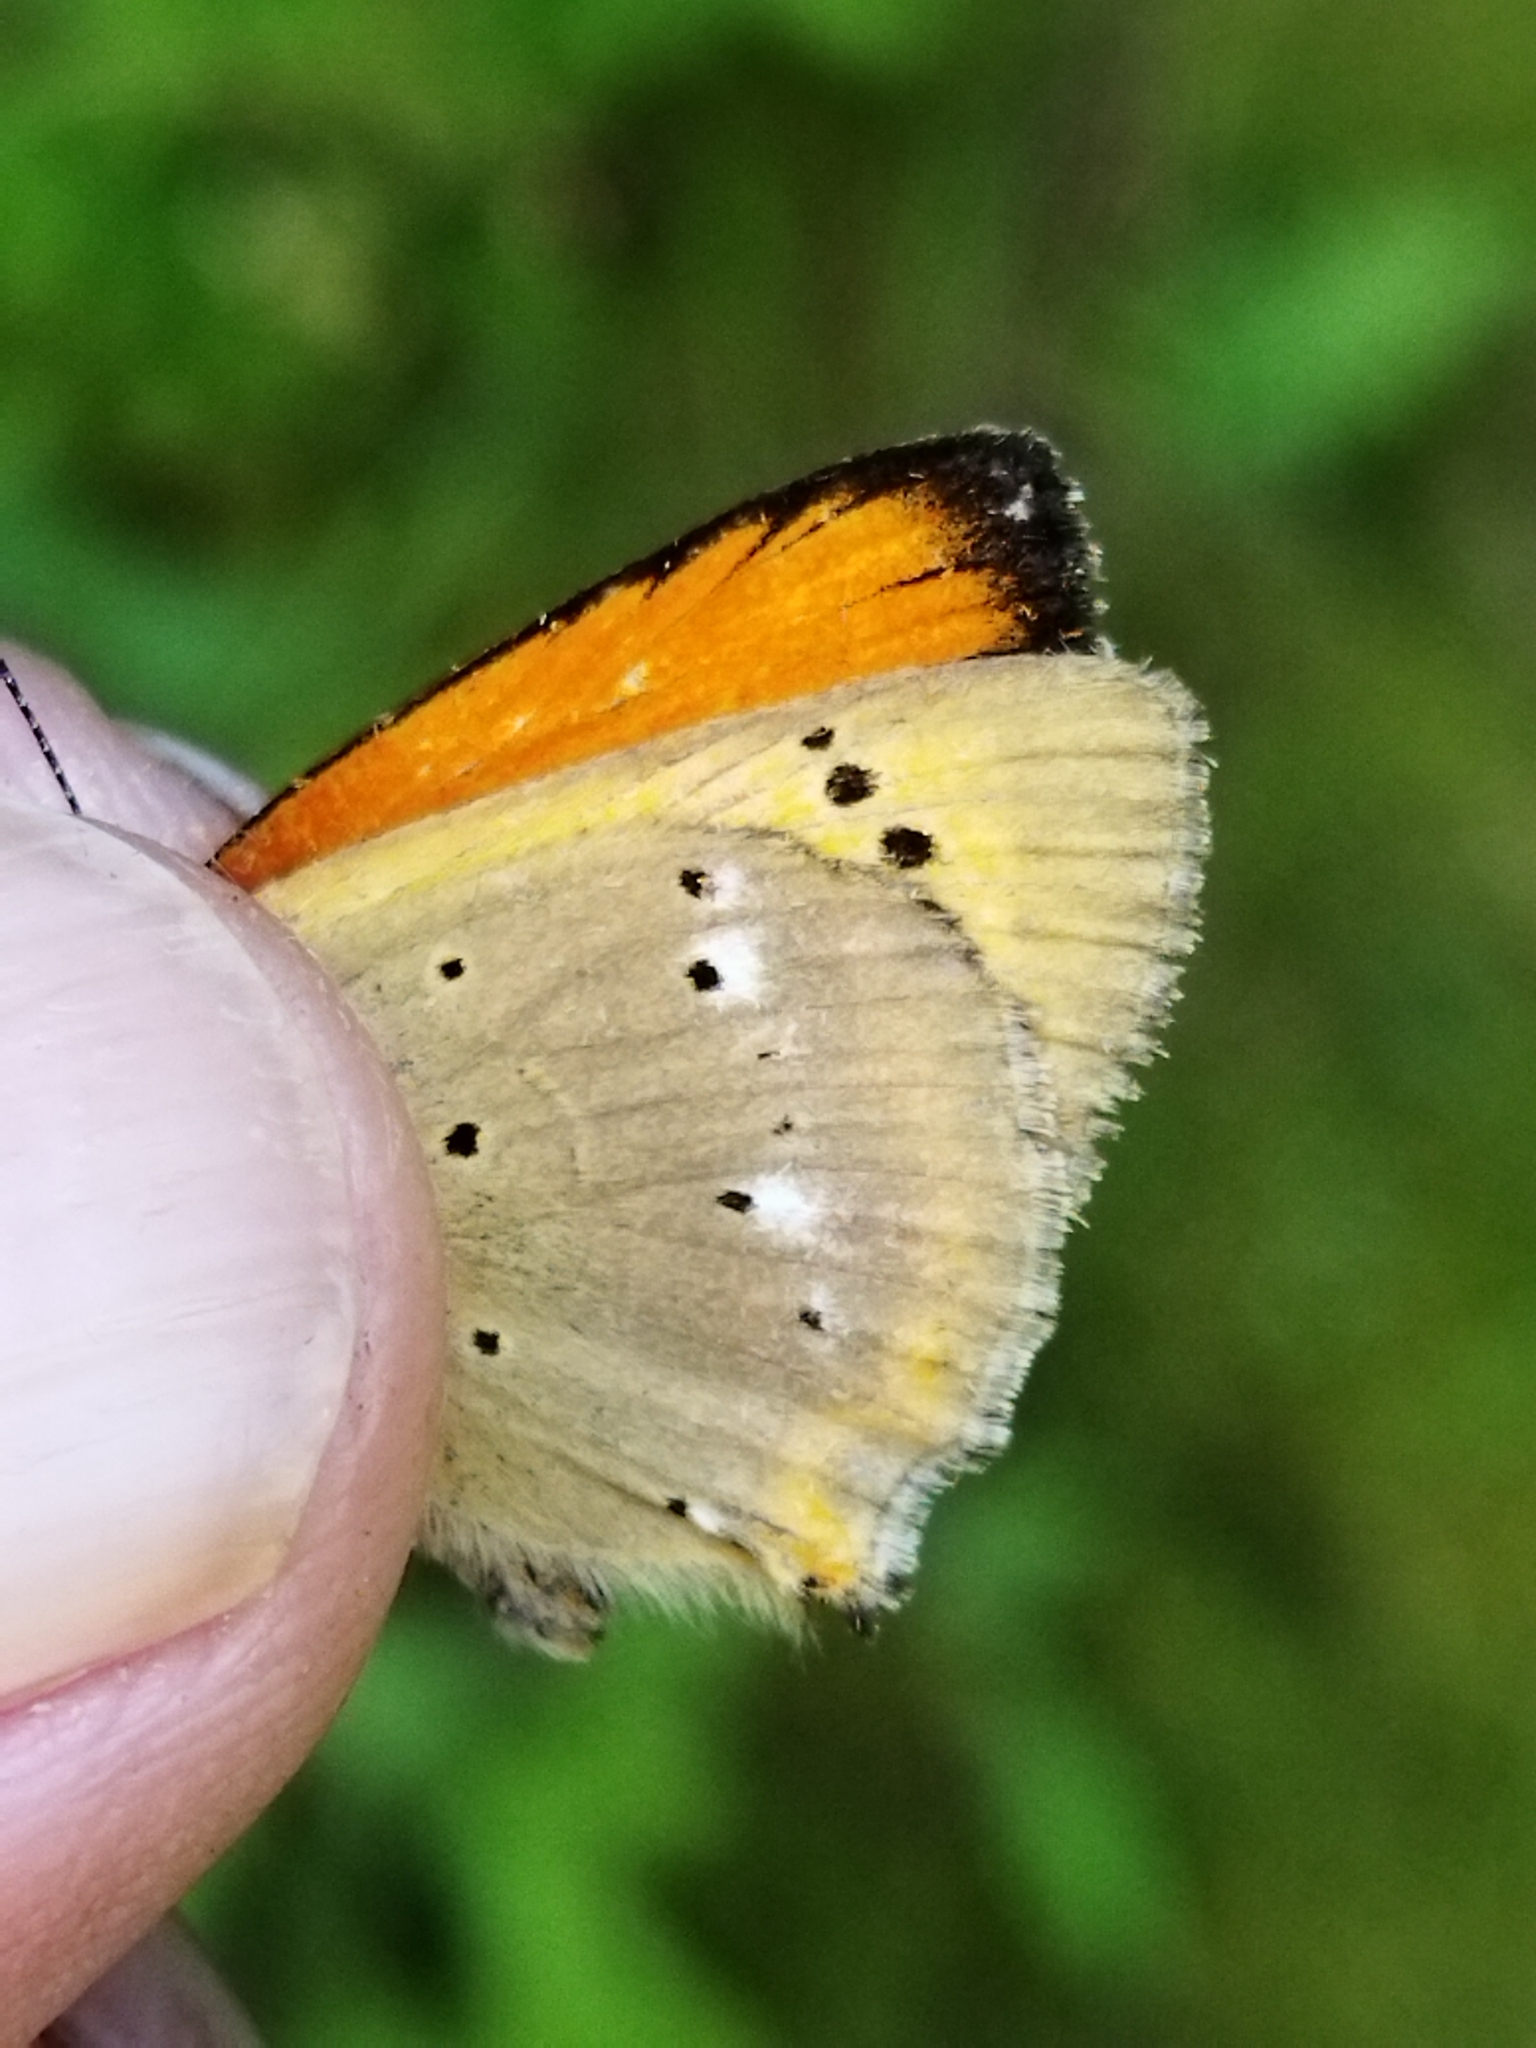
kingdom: Animalia
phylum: Arthropoda
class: Insecta
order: Lepidoptera
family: Lycaenidae
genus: Lycaena
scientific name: Lycaena virgaureae
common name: Scarce copper
